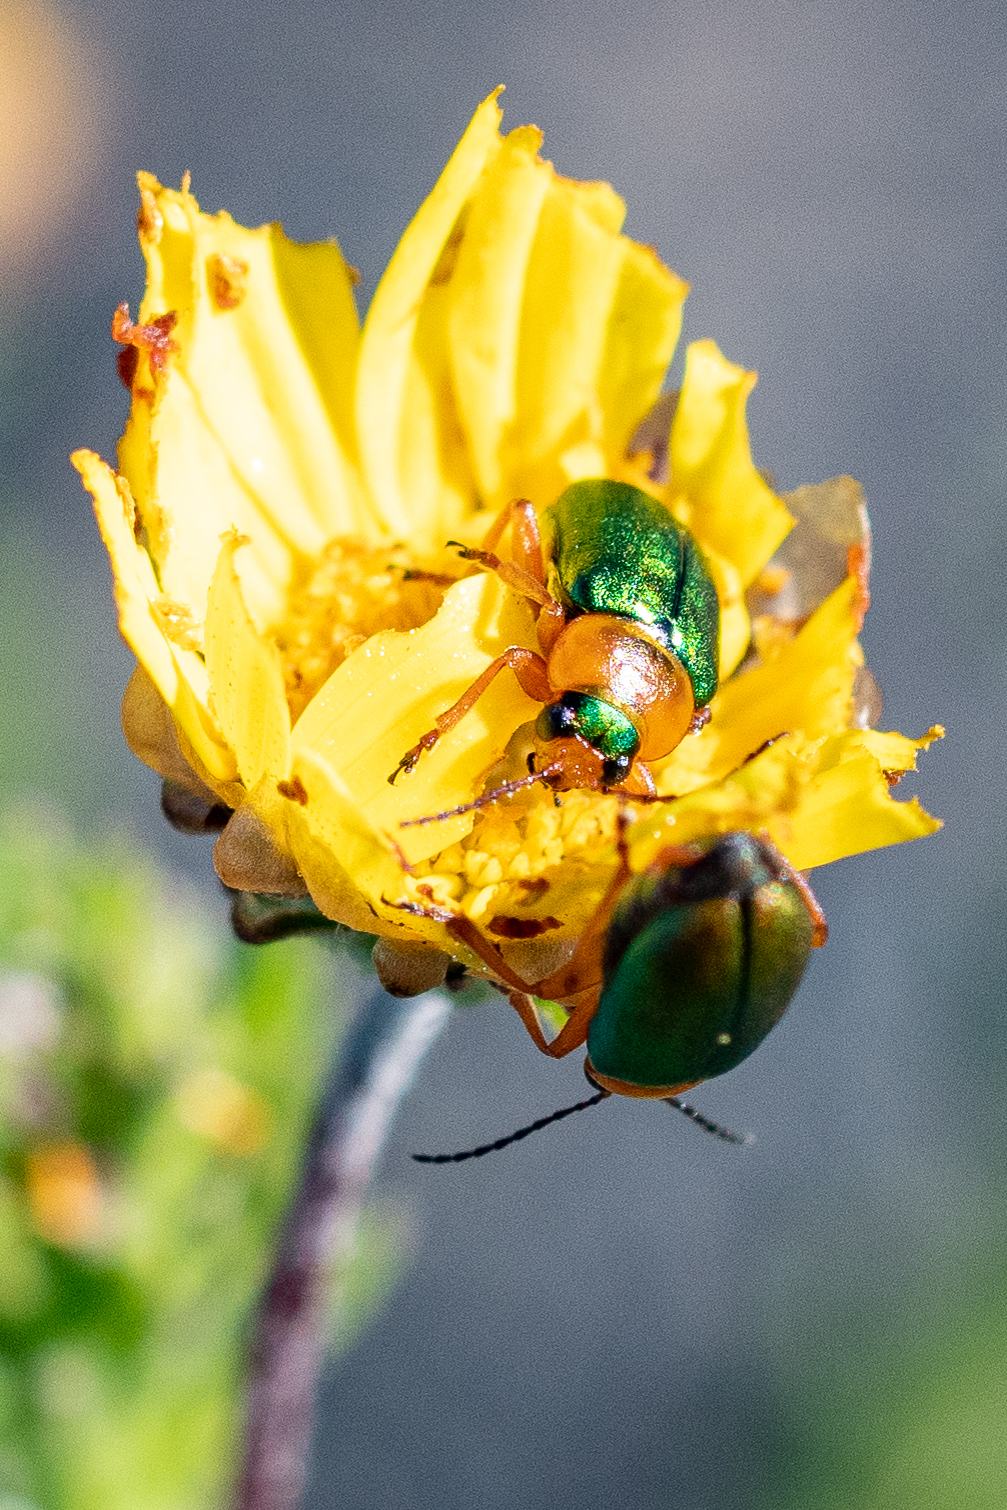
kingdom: Animalia
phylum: Arthropoda
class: Insecta
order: Coleoptera
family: Chrysomelidae
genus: Palaeophylia
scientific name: Palaeophylia
